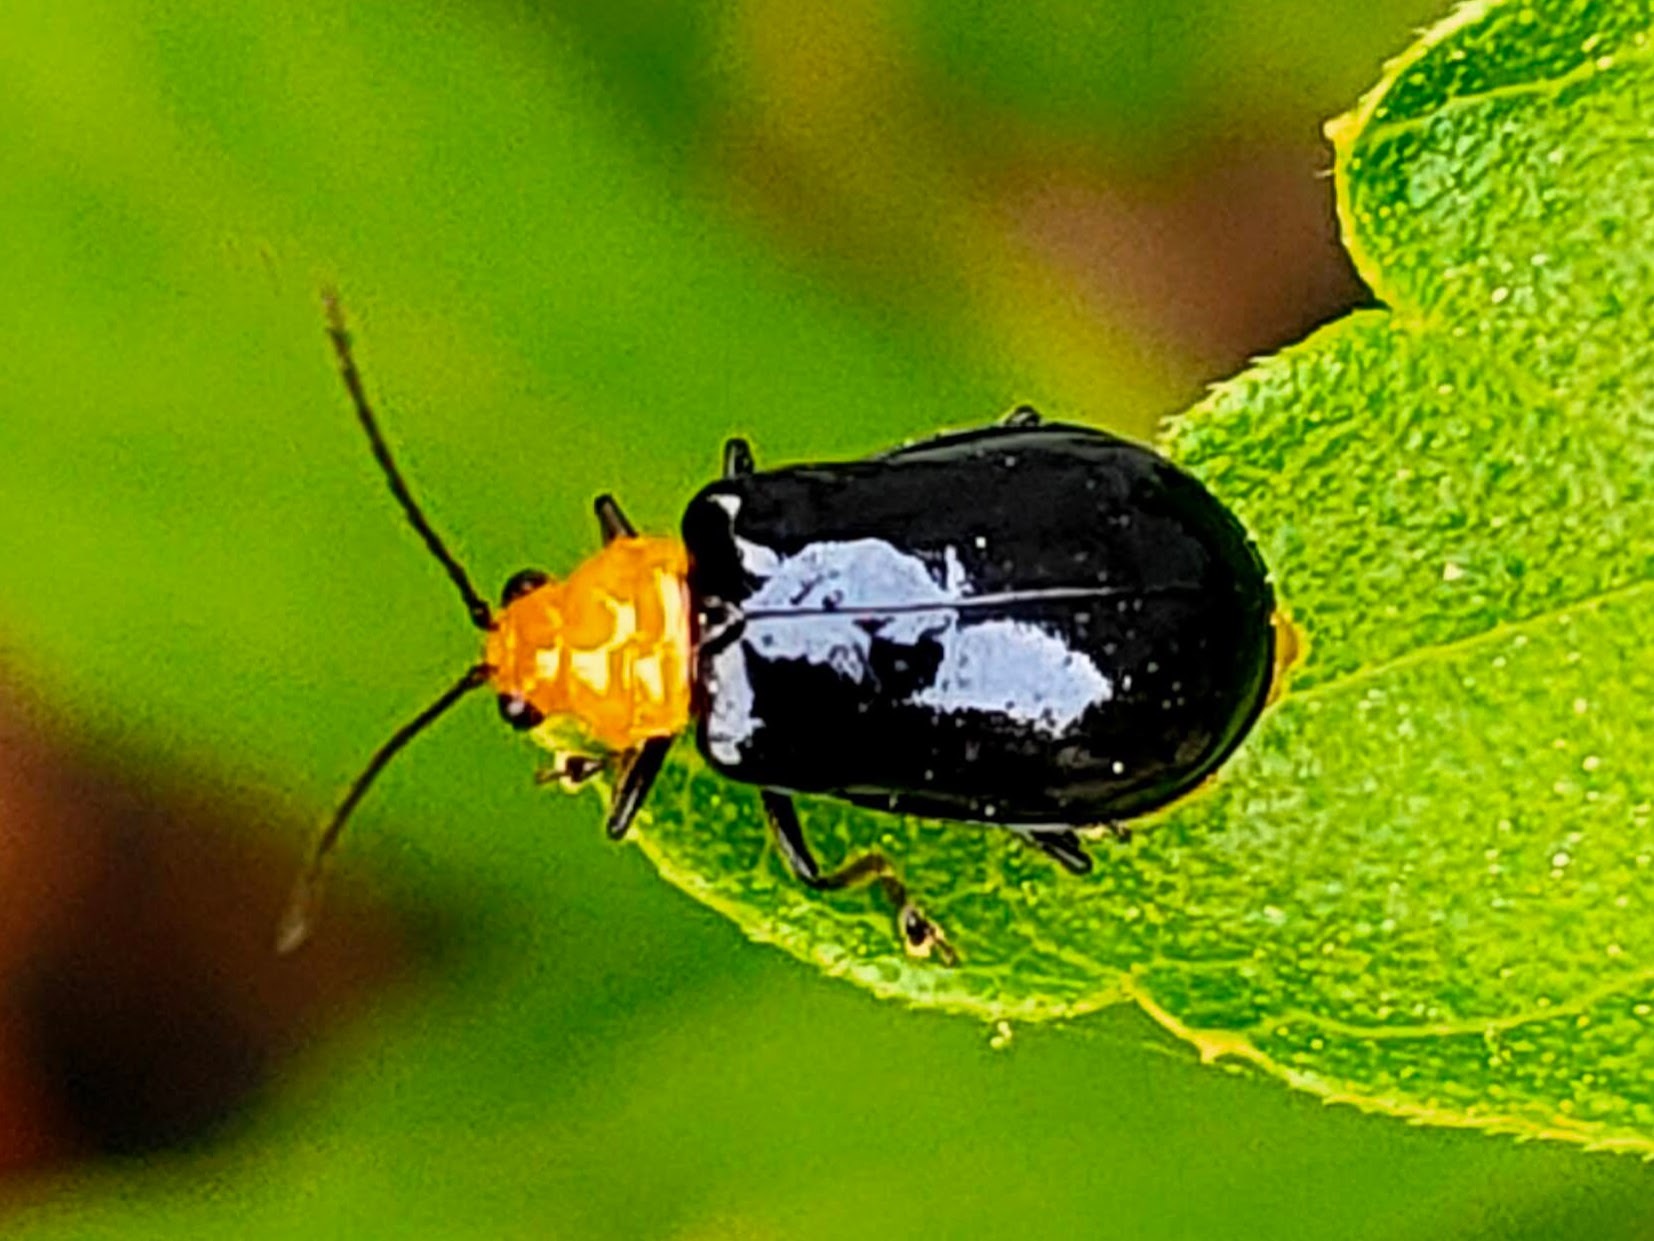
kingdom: Animalia
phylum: Arthropoda
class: Insecta
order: Coleoptera
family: Chrysomelidae
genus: Aulacophora
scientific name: Aulacophora nigripennis
